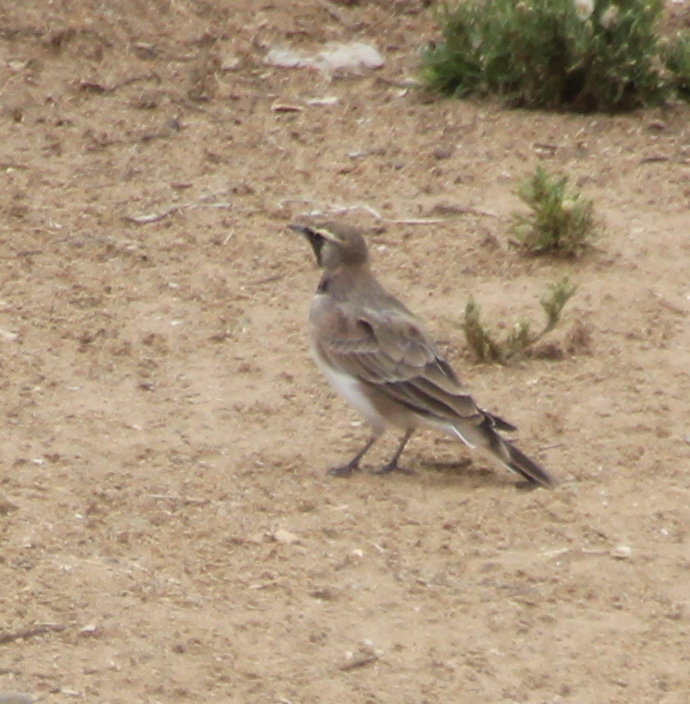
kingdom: Animalia
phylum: Chordata
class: Aves
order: Passeriformes
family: Alaudidae
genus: Eremophila
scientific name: Eremophila alpestris
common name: Horned lark
